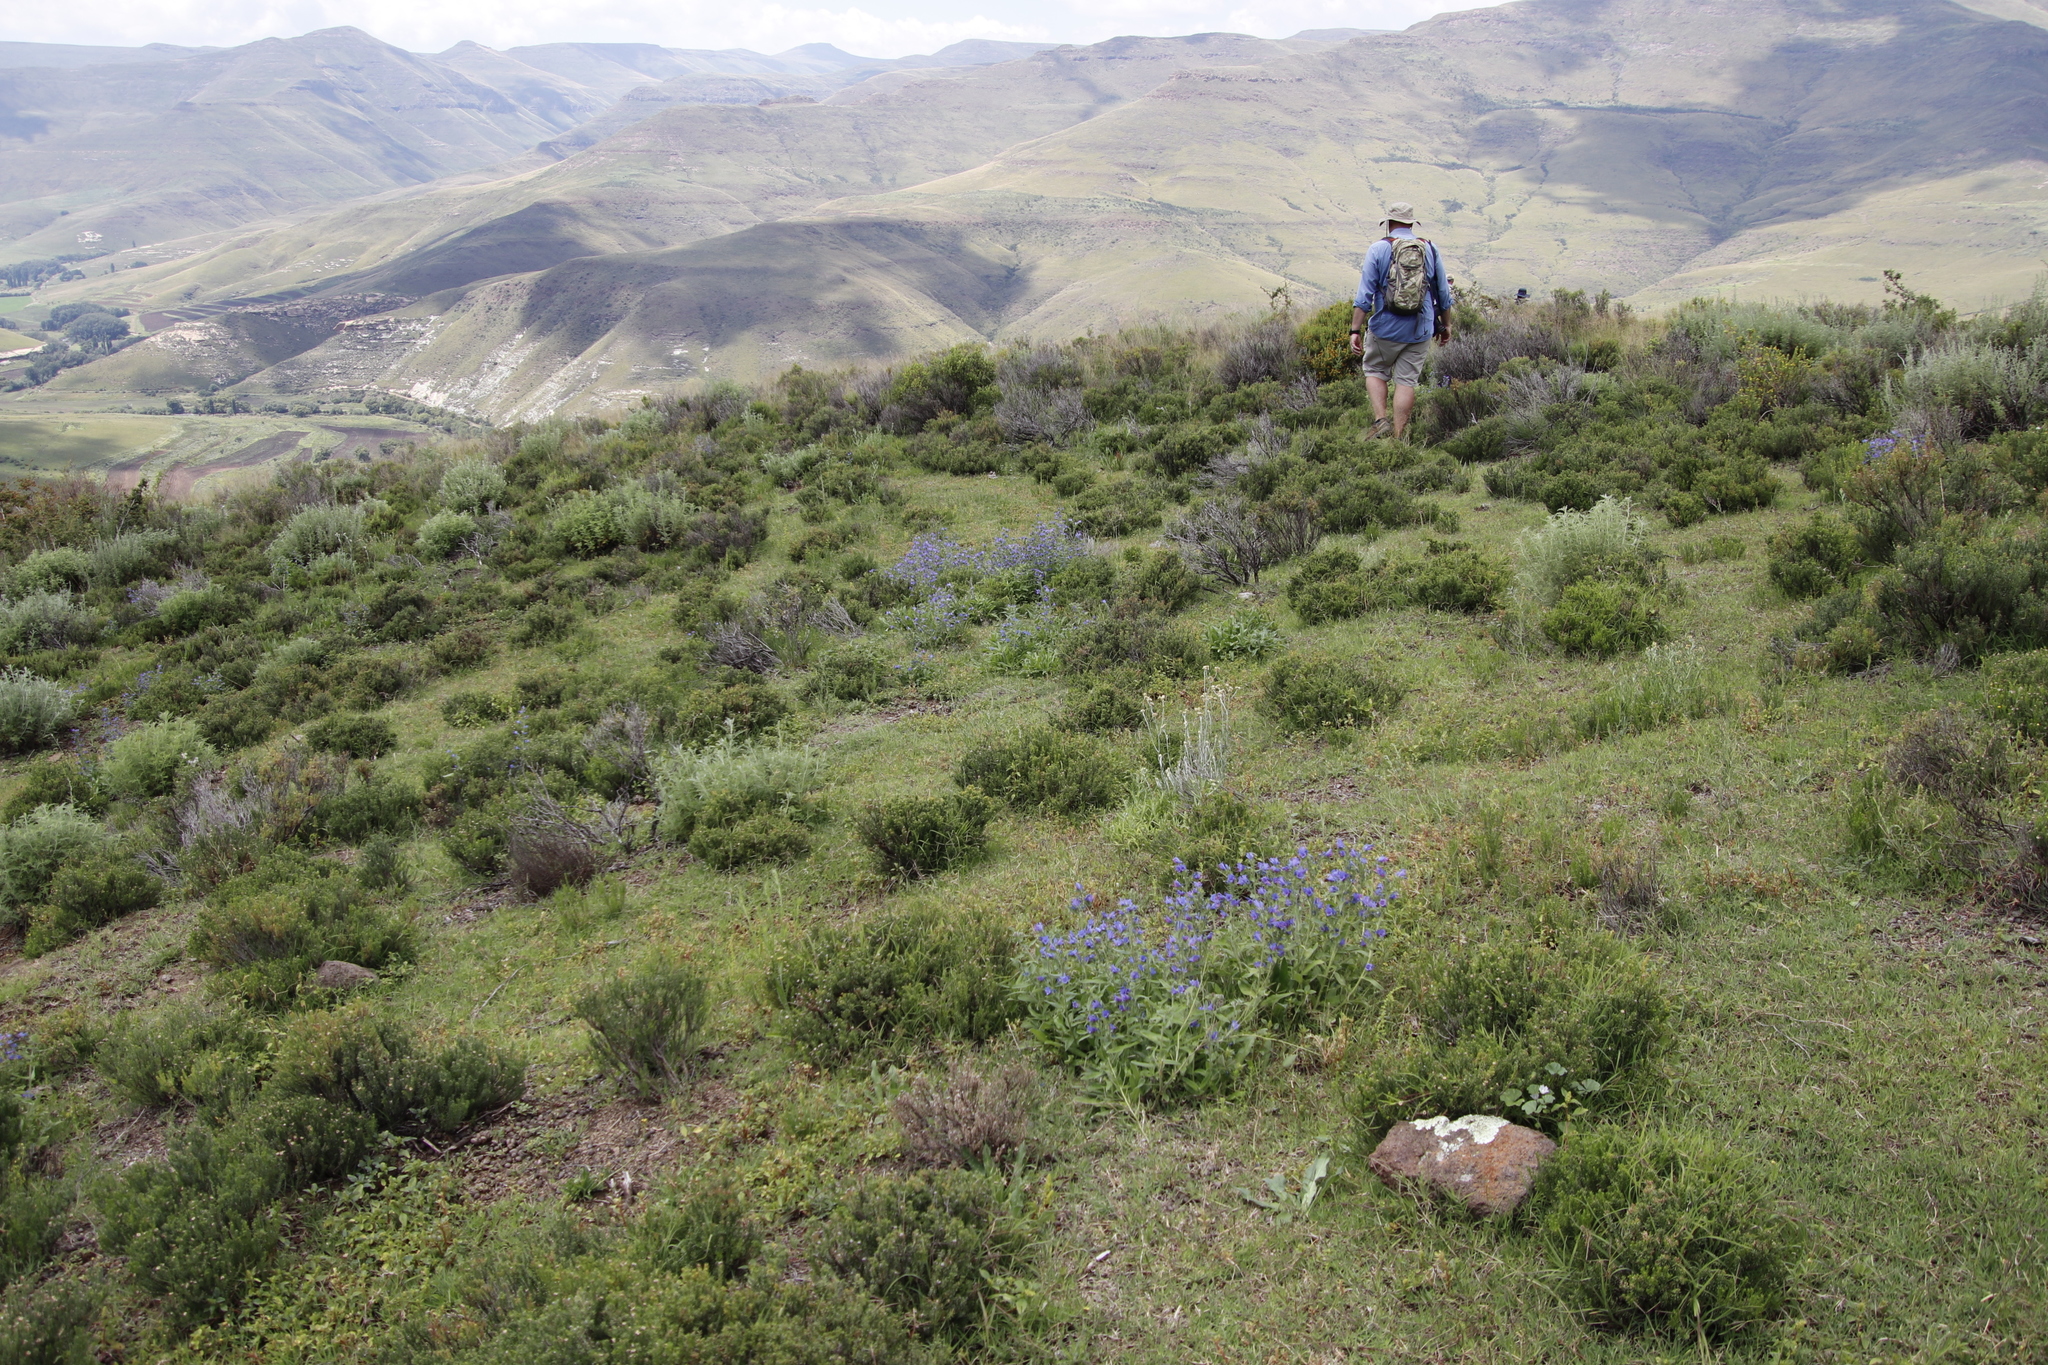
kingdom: Plantae
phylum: Tracheophyta
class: Magnoliopsida
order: Boraginales
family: Boraginaceae
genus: Echium
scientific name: Echium vulgare
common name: Common viper's bugloss
